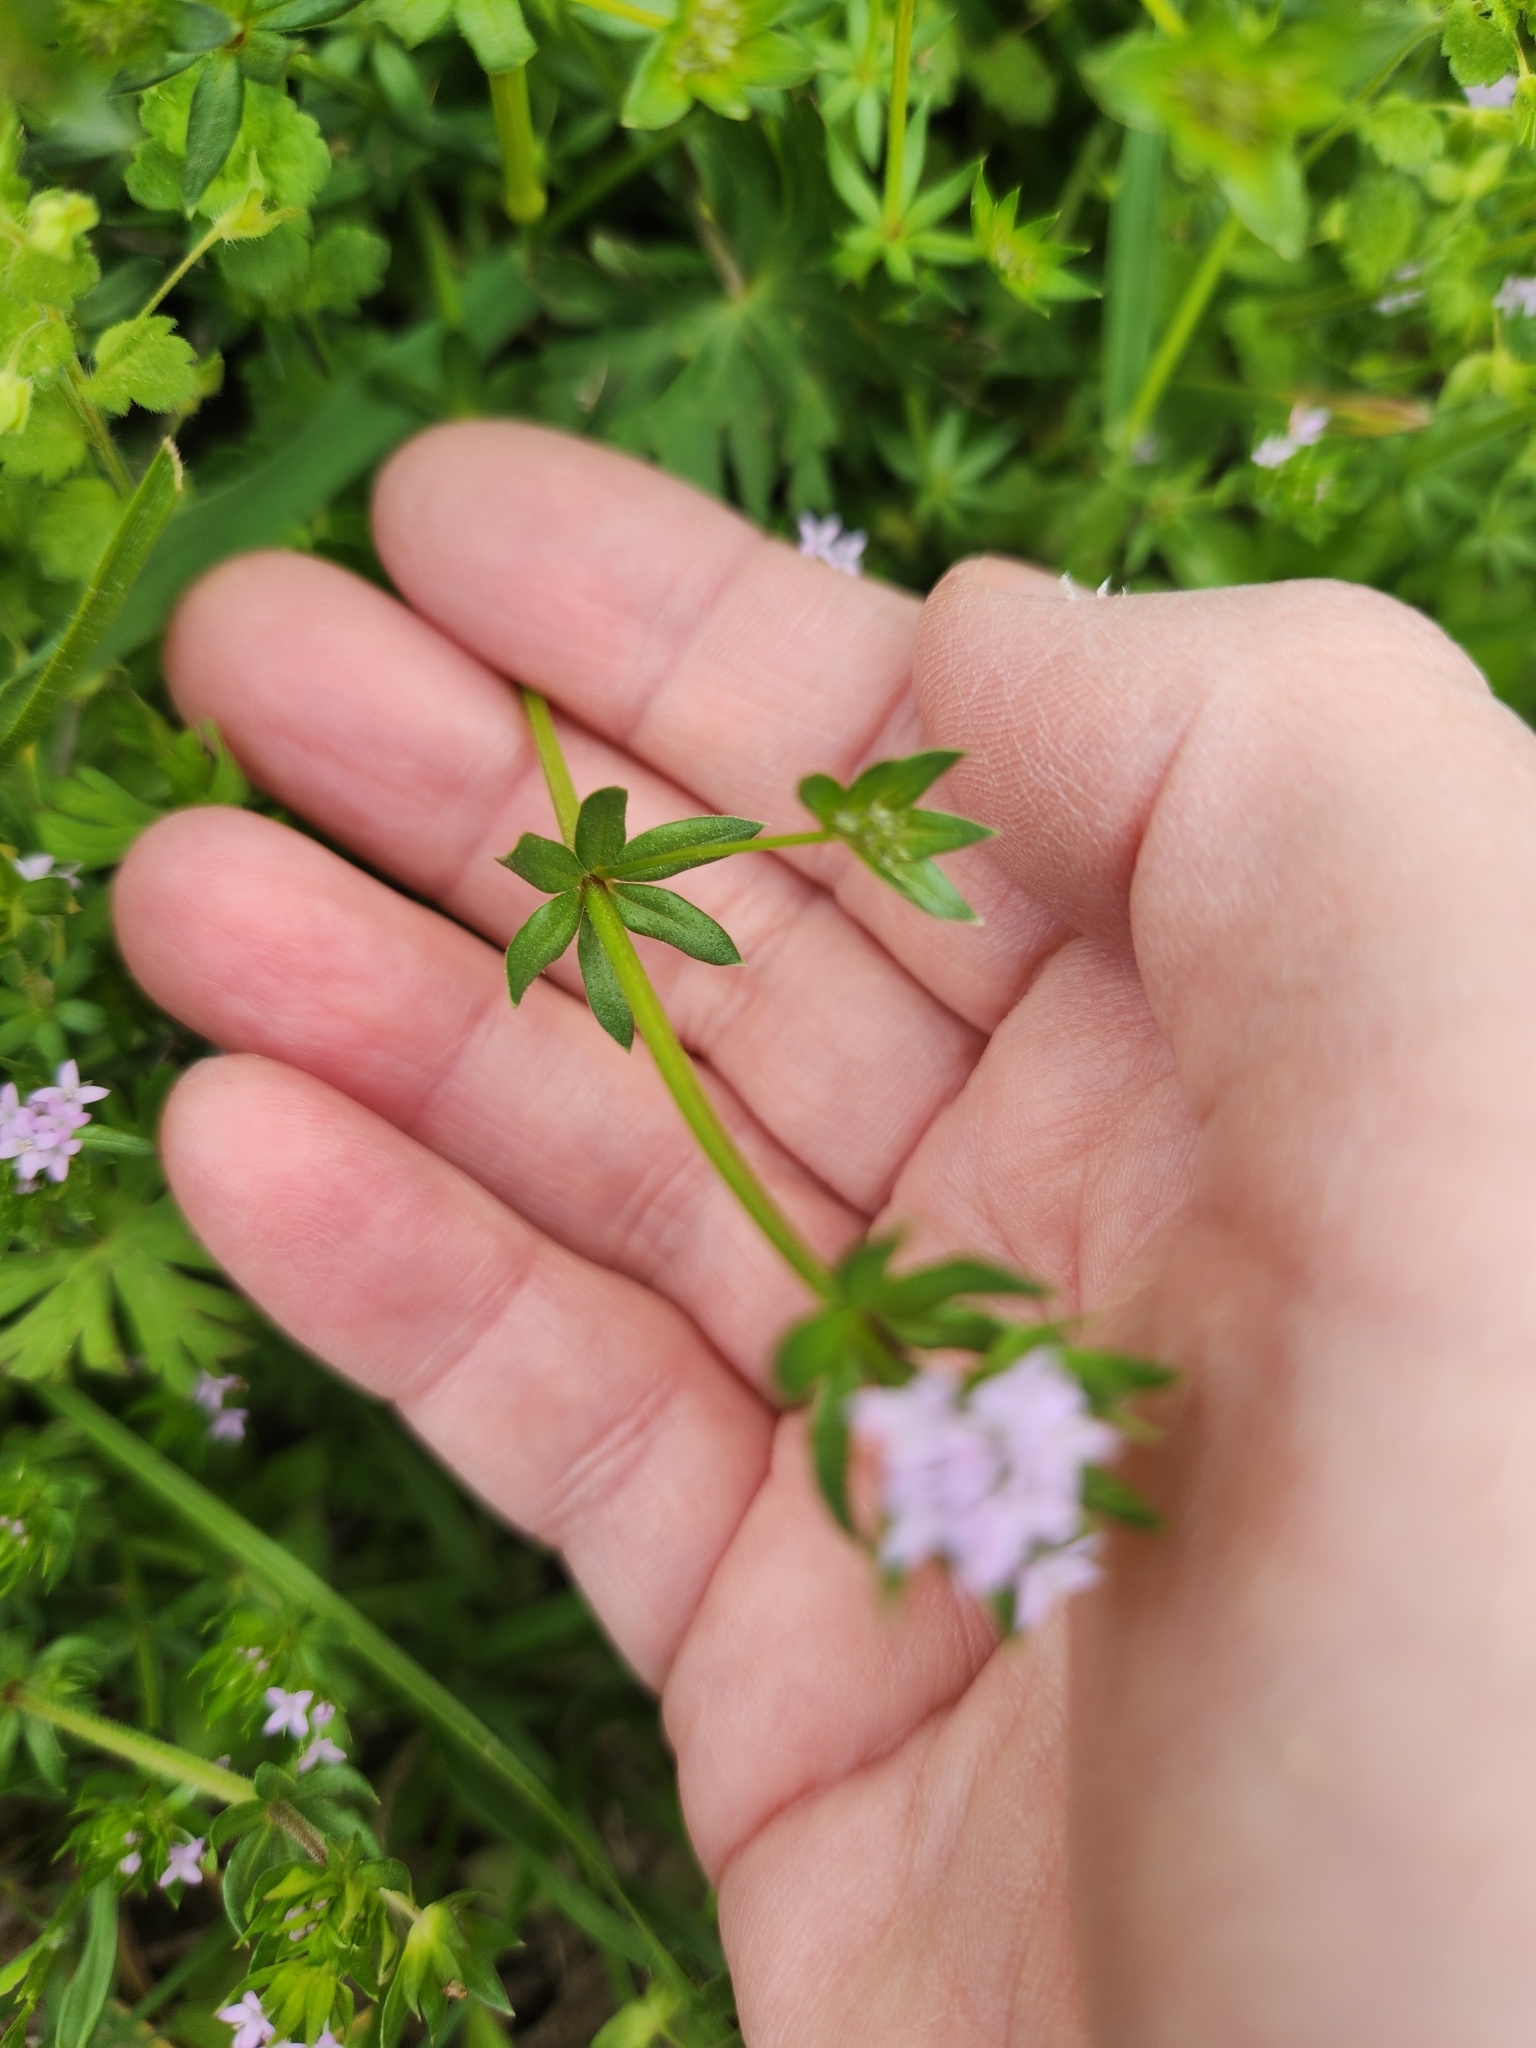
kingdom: Plantae
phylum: Tracheophyta
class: Magnoliopsida
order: Gentianales
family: Rubiaceae
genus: Sherardia
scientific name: Sherardia arvensis
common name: Field madder
